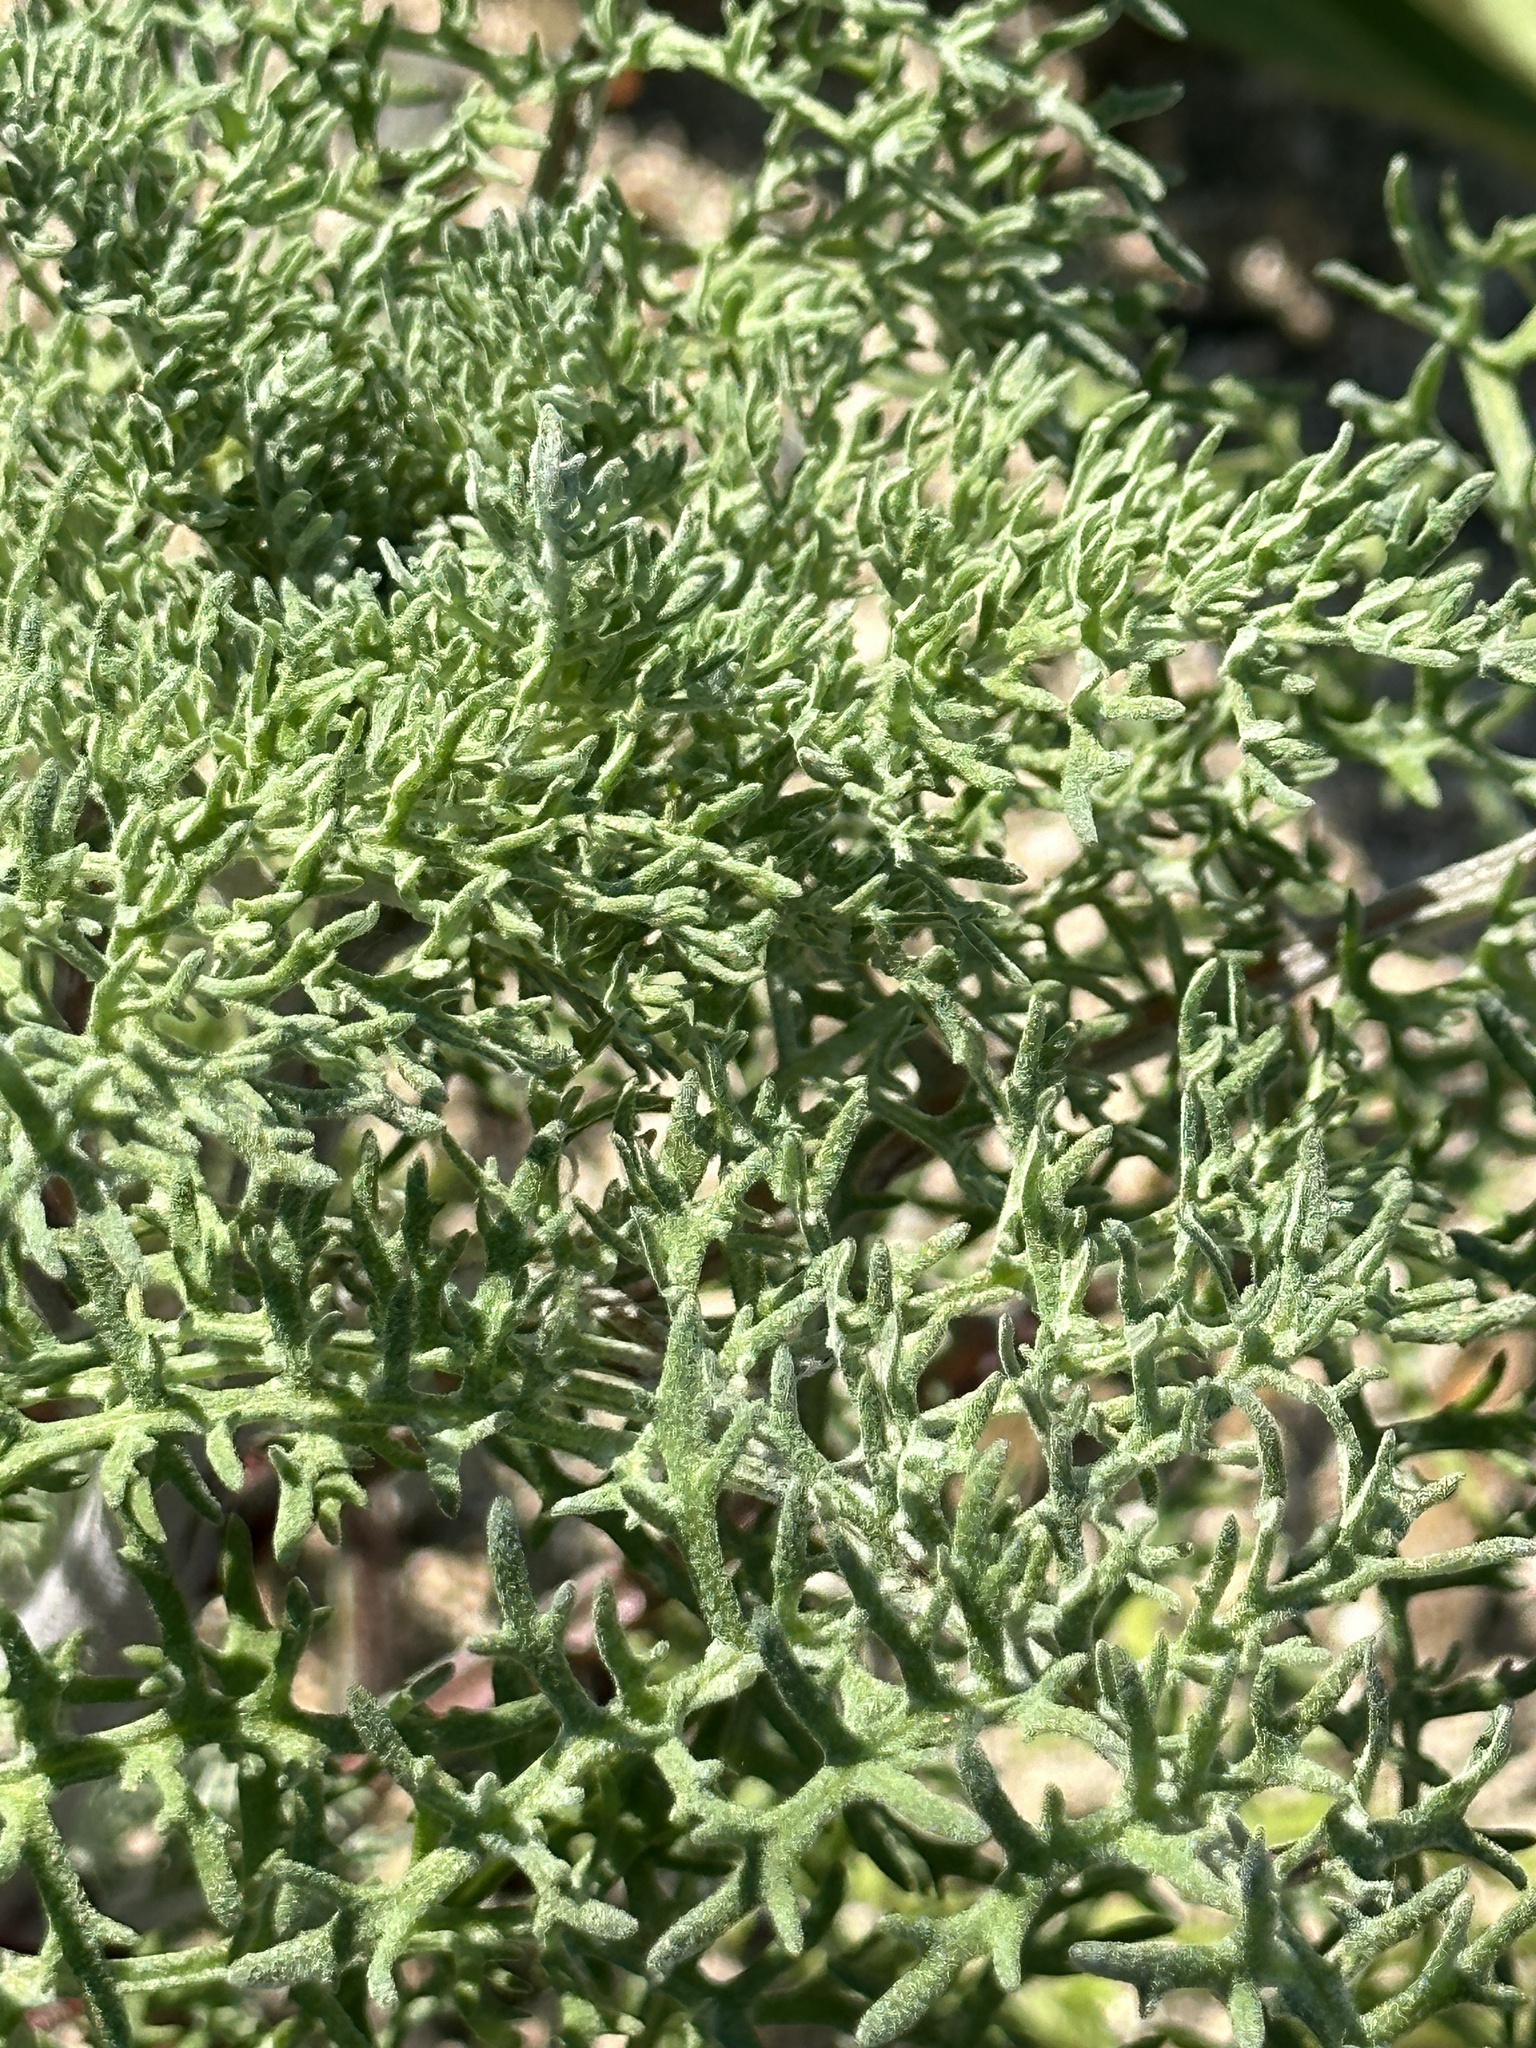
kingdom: Plantae
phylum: Tracheophyta
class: Magnoliopsida
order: Asterales
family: Asteraceae
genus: Chaenactis
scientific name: Chaenactis artemisiifolia
